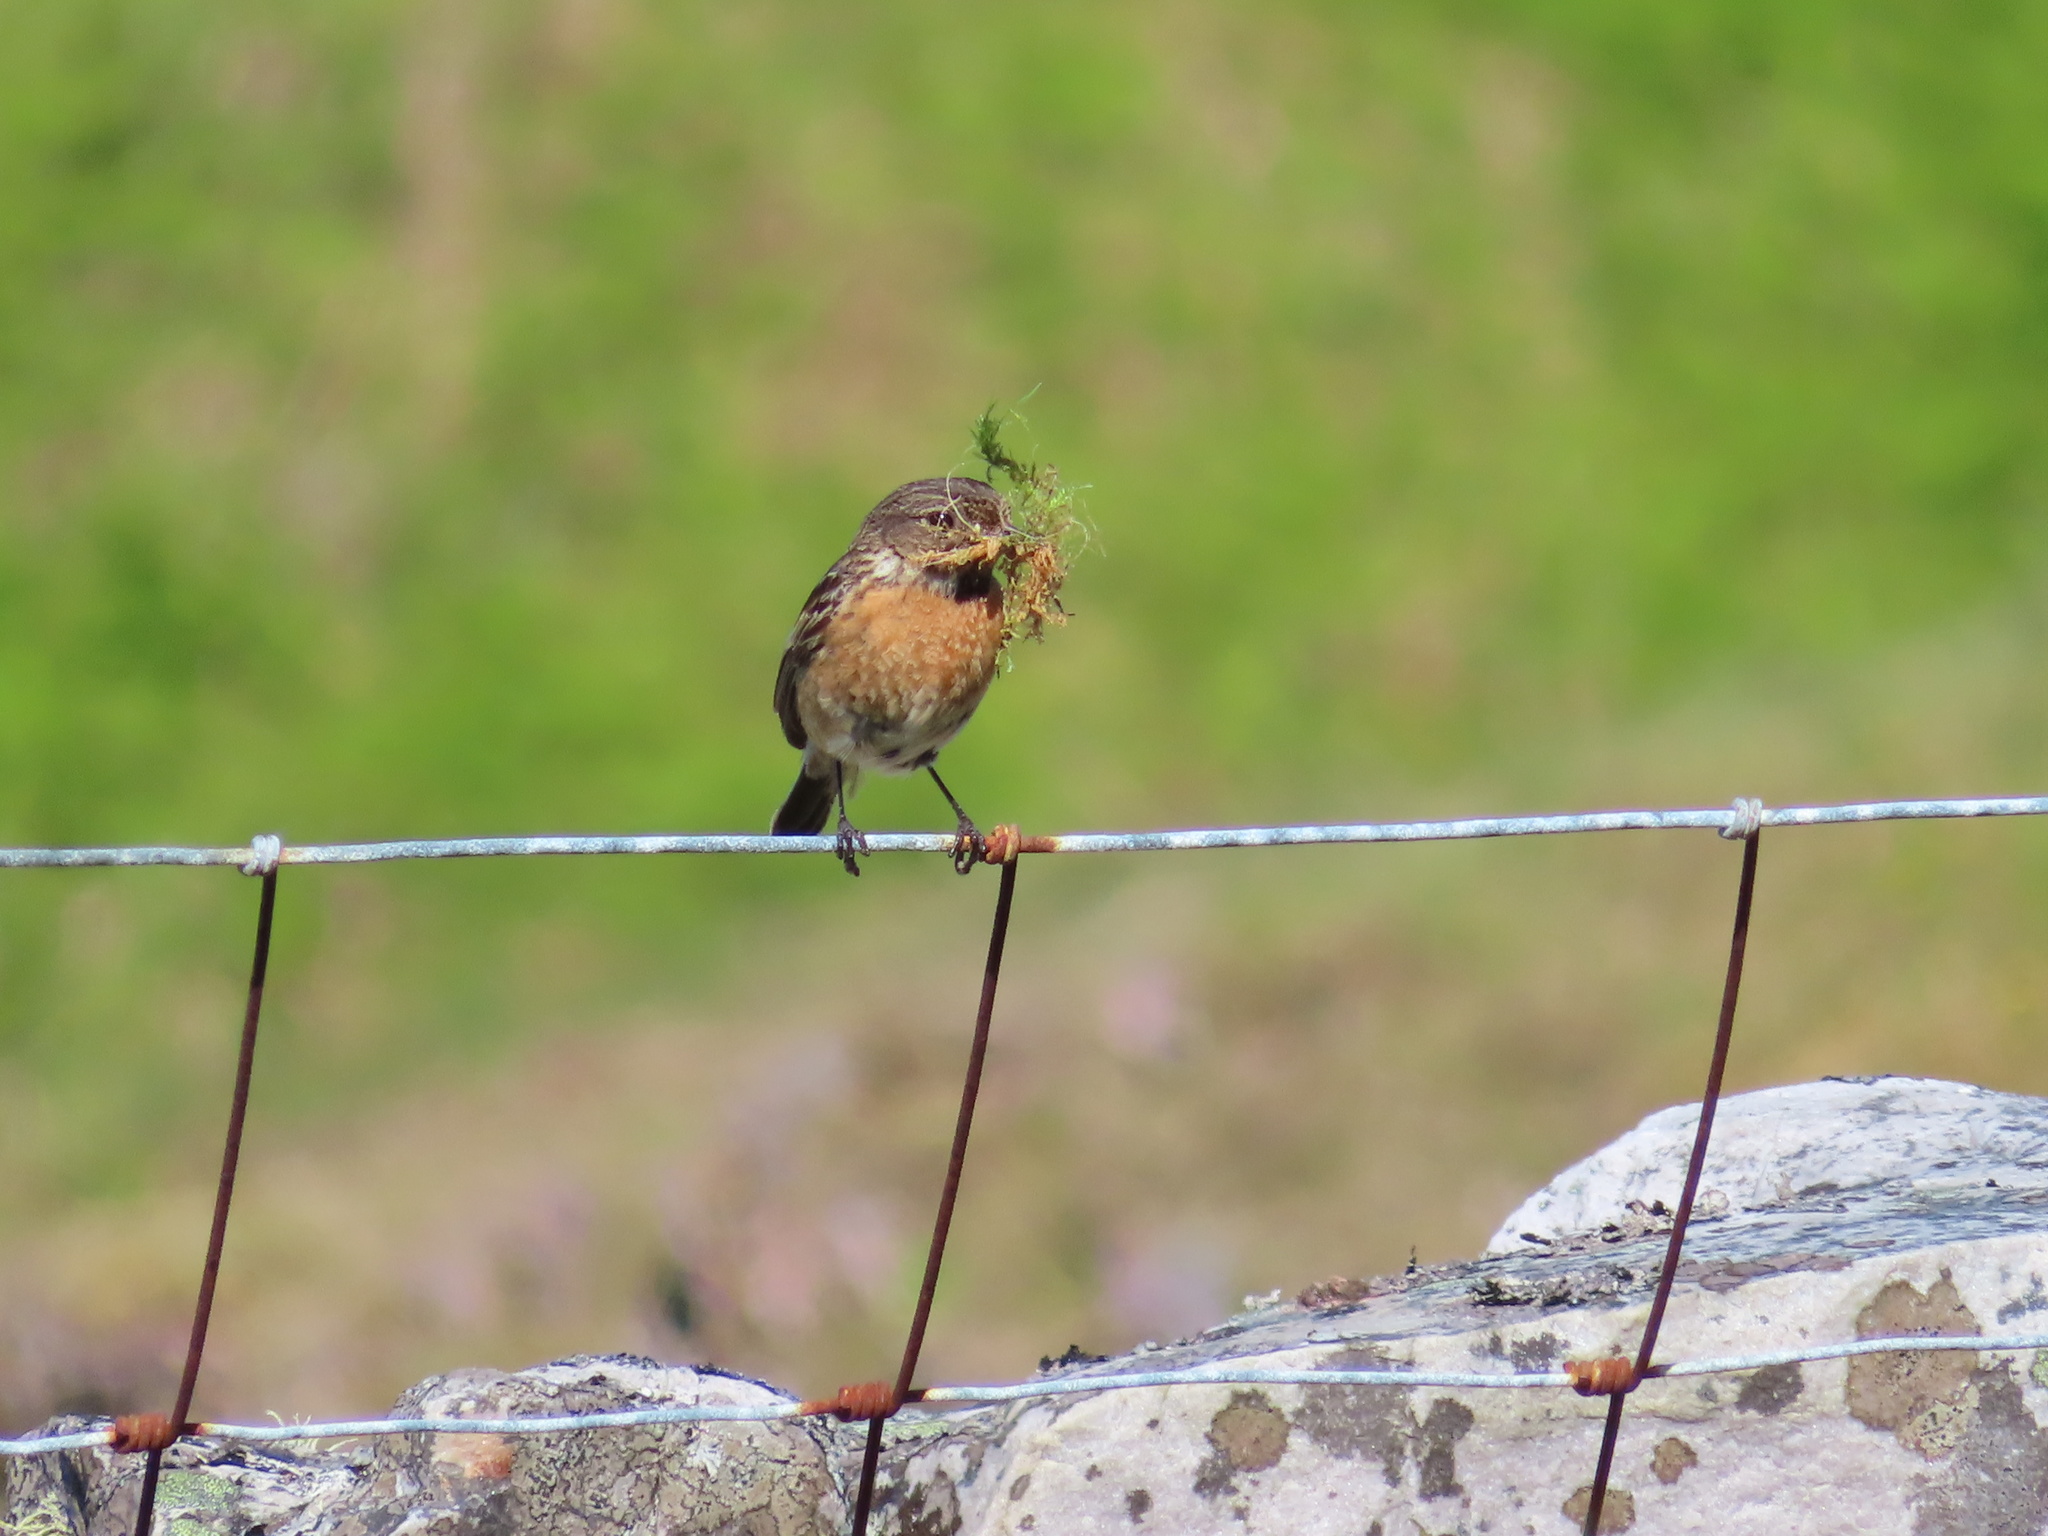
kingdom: Animalia
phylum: Chordata
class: Aves
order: Passeriformes
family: Muscicapidae
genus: Saxicola
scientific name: Saxicola rubicola
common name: European stonechat
